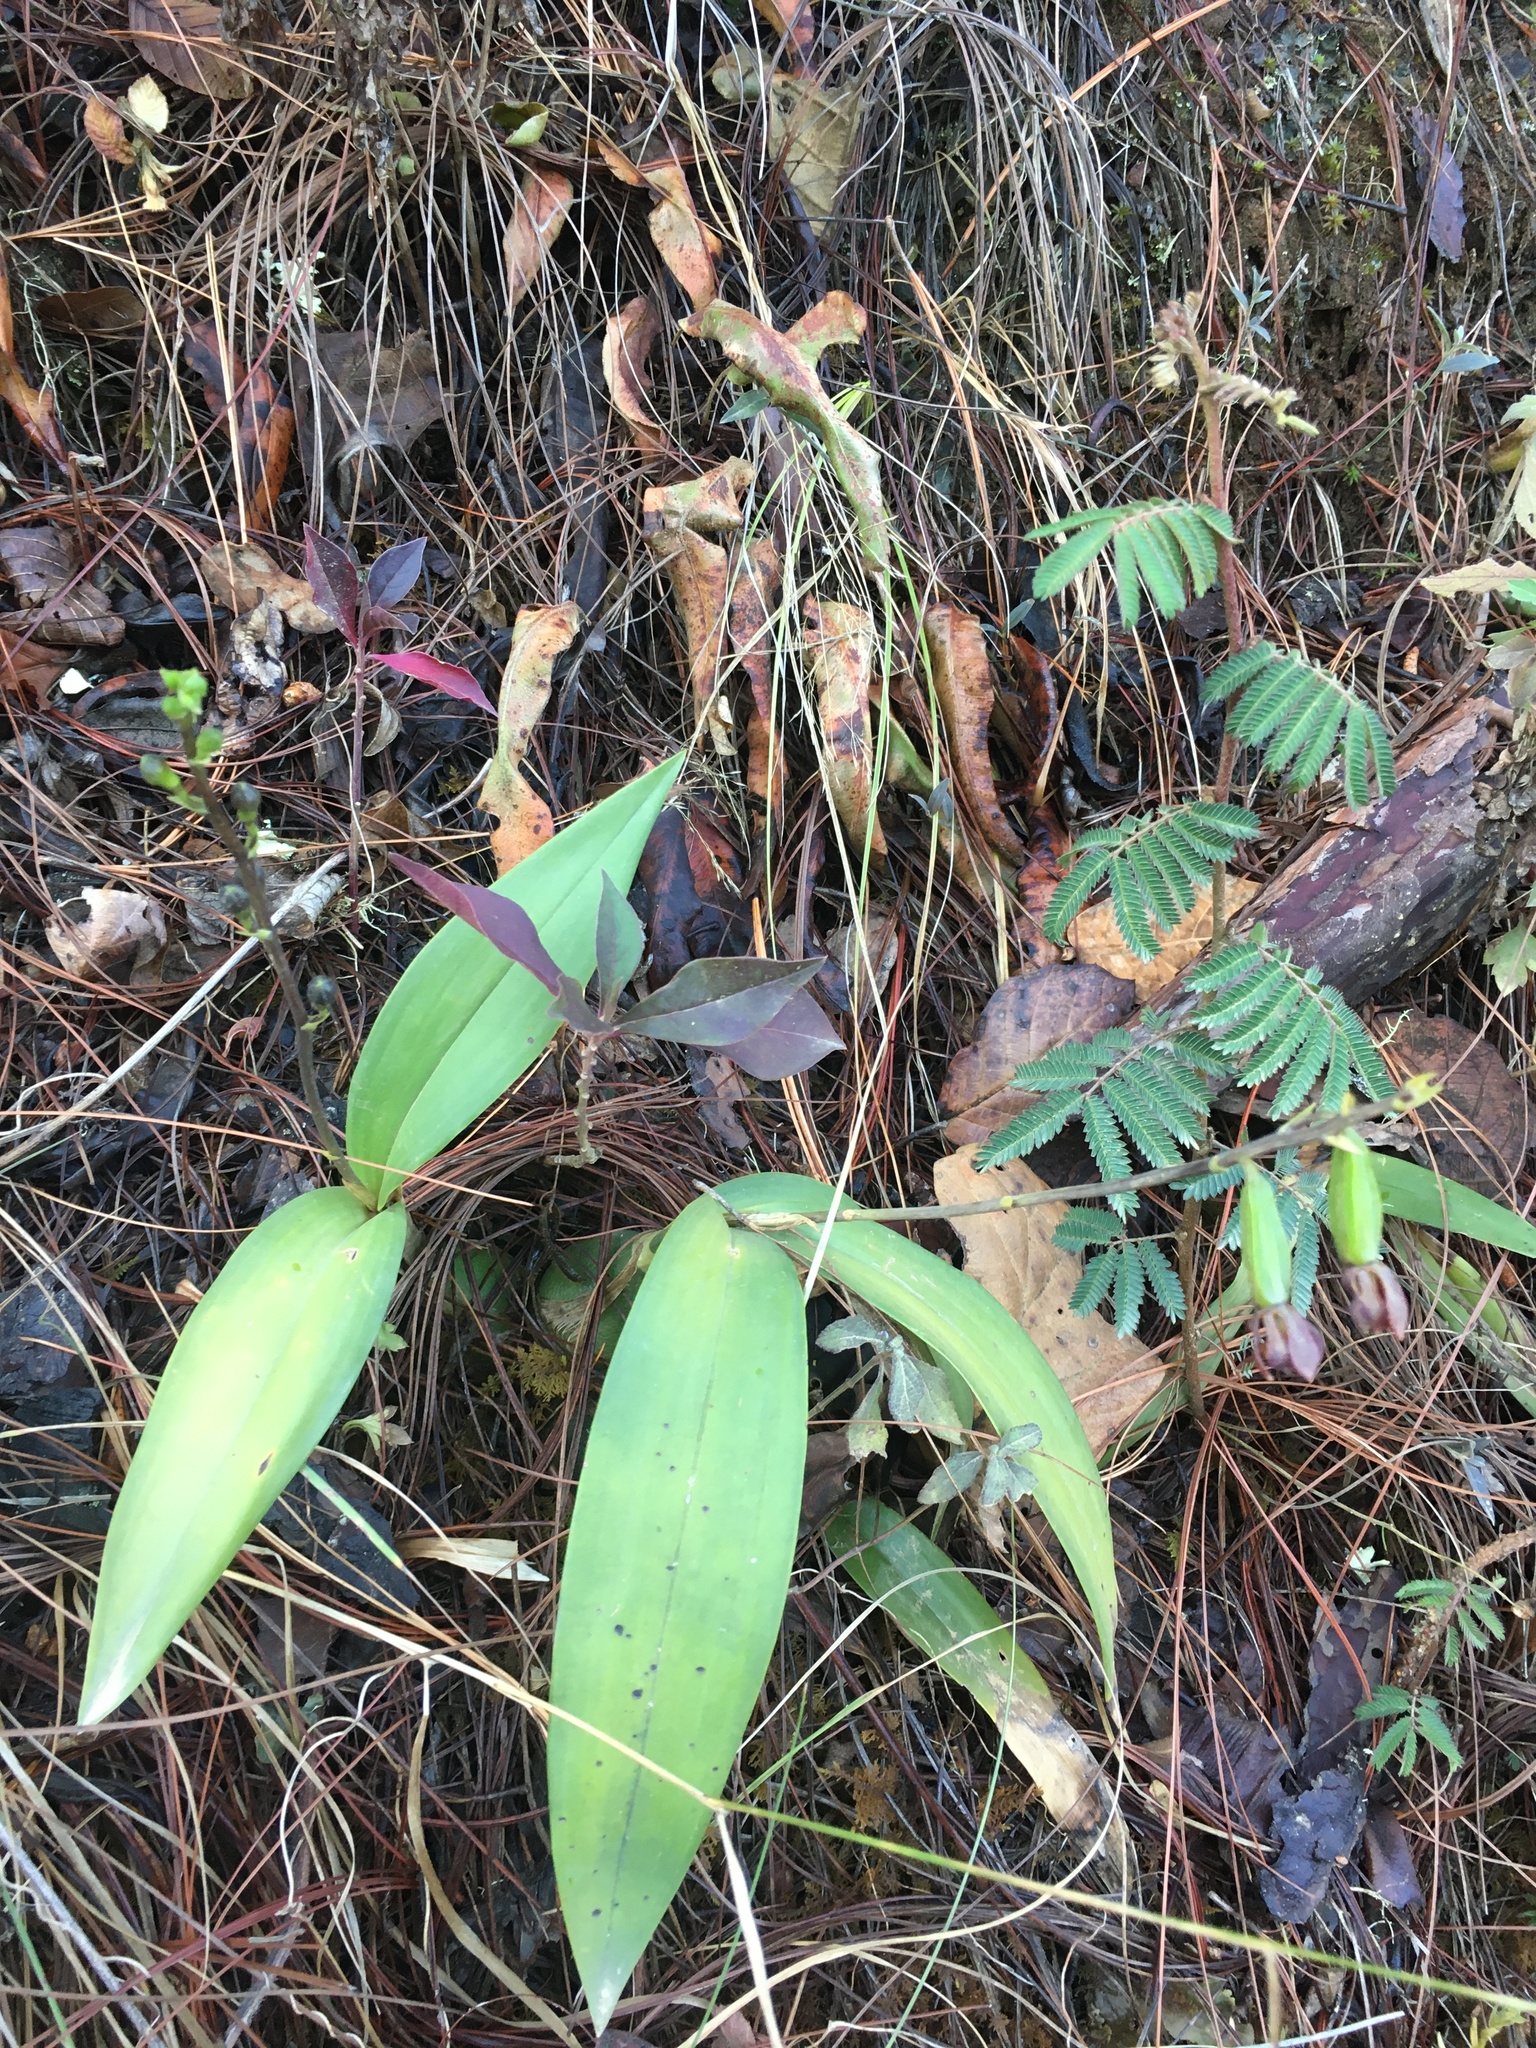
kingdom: Plantae
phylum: Tracheophyta
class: Liliopsida
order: Asparagales
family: Orchidaceae
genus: Prosthechea
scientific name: Prosthechea varicosa
